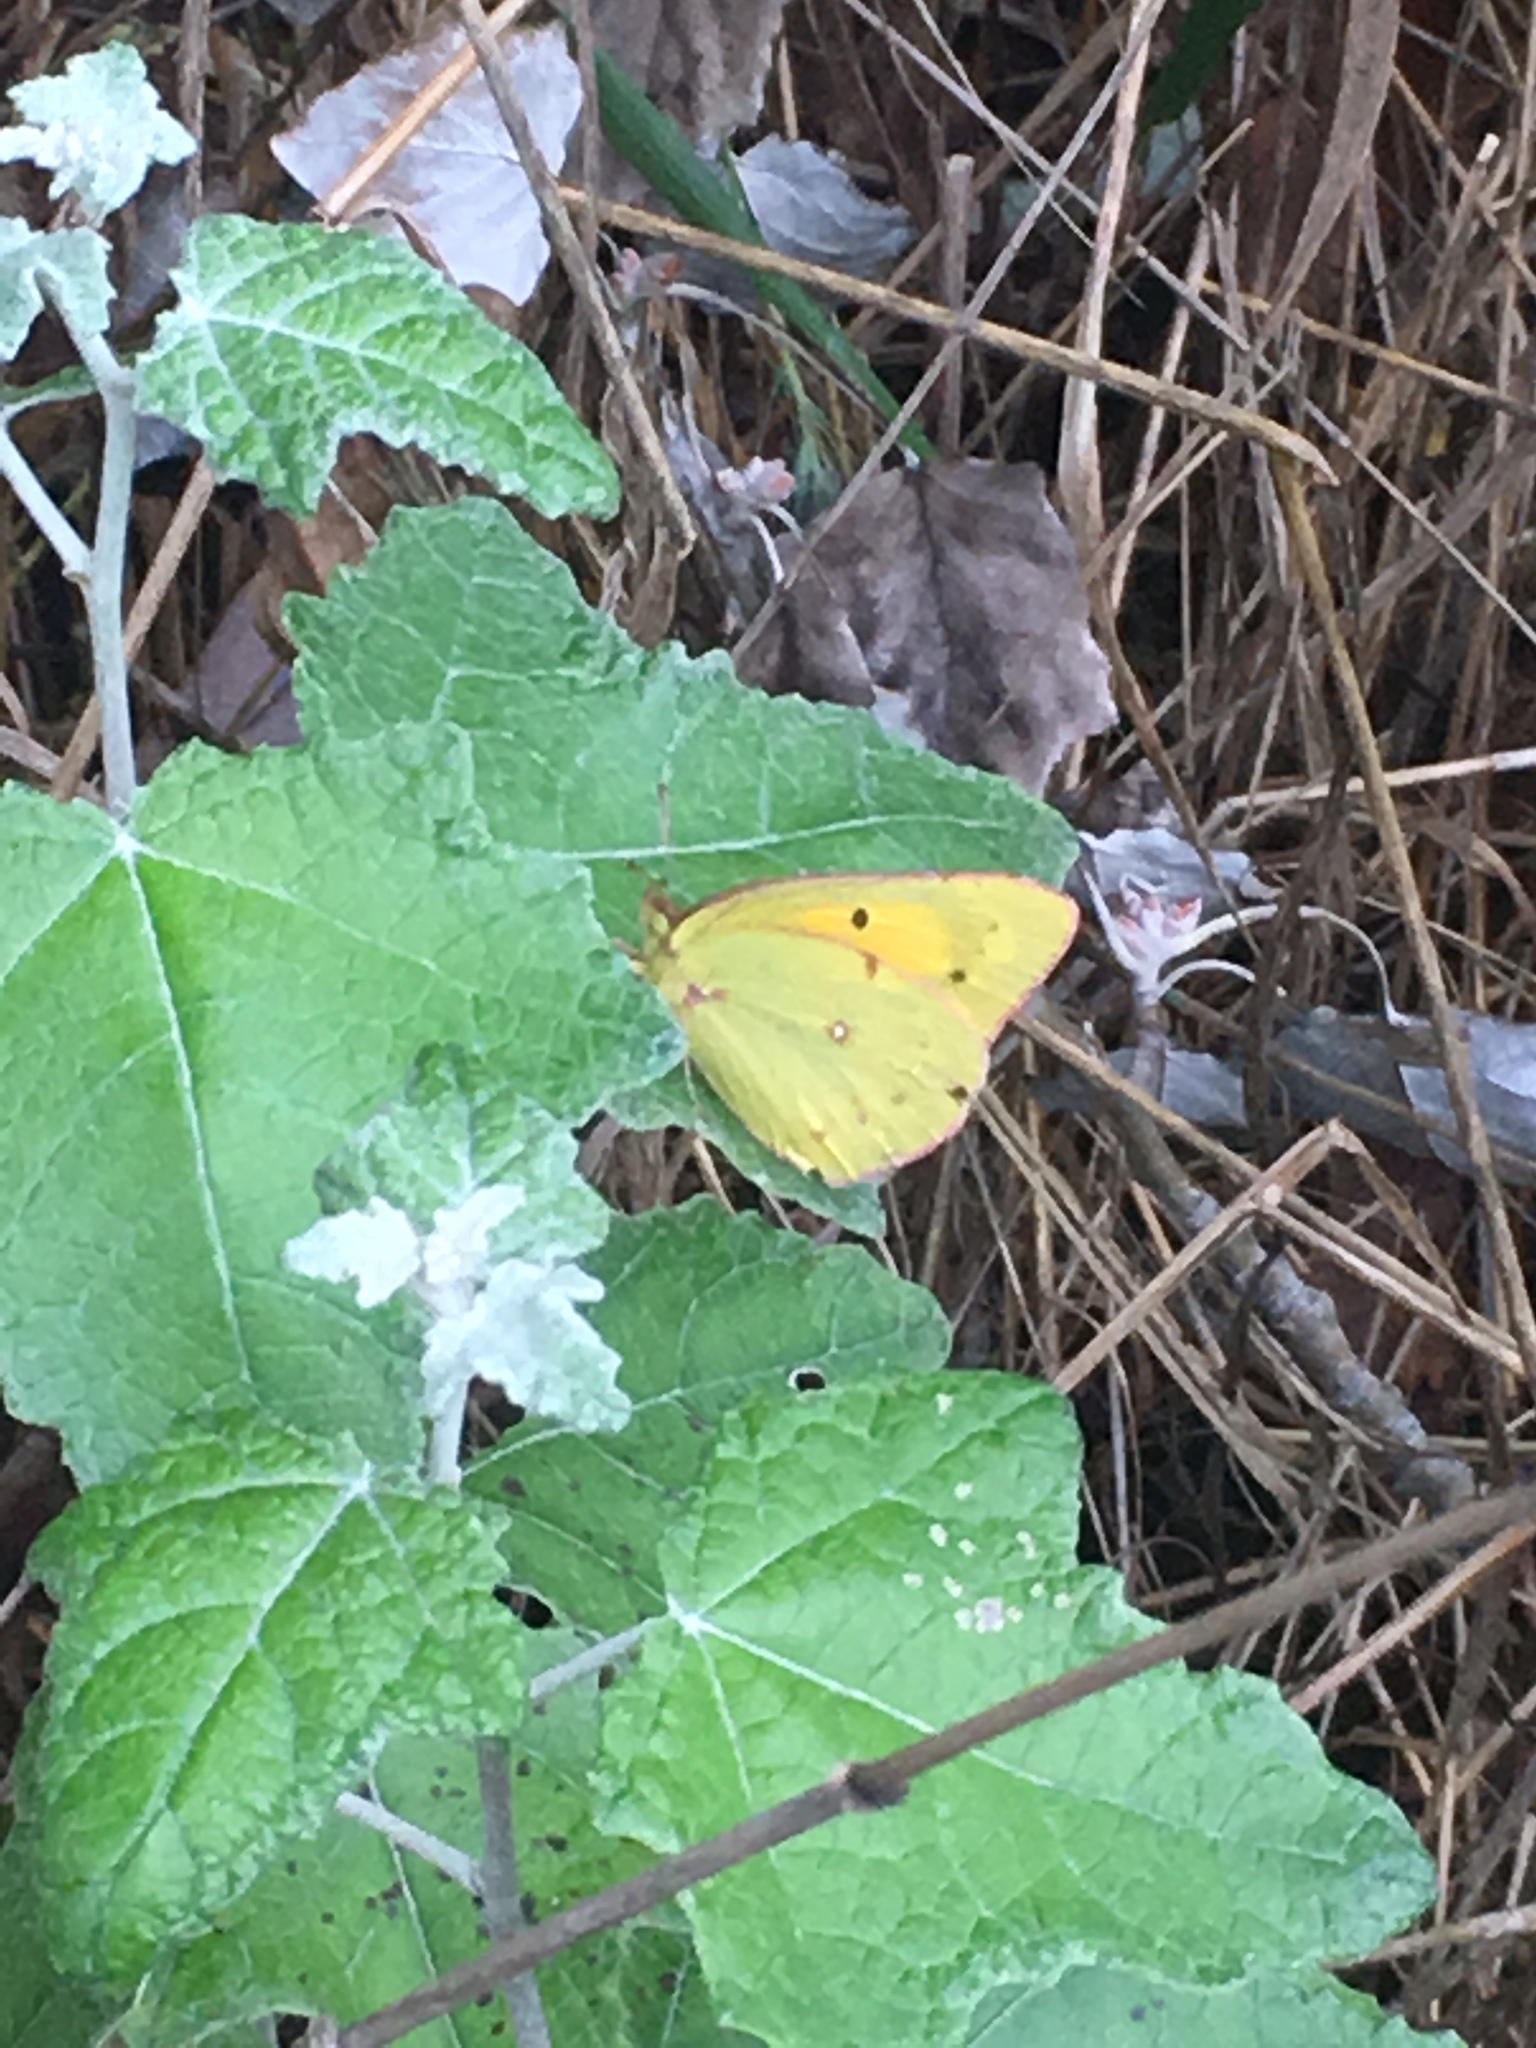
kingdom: Animalia
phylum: Arthropoda
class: Insecta
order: Lepidoptera
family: Pieridae
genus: Colias
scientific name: Colias eurytheme
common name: Alfalfa butterfly
